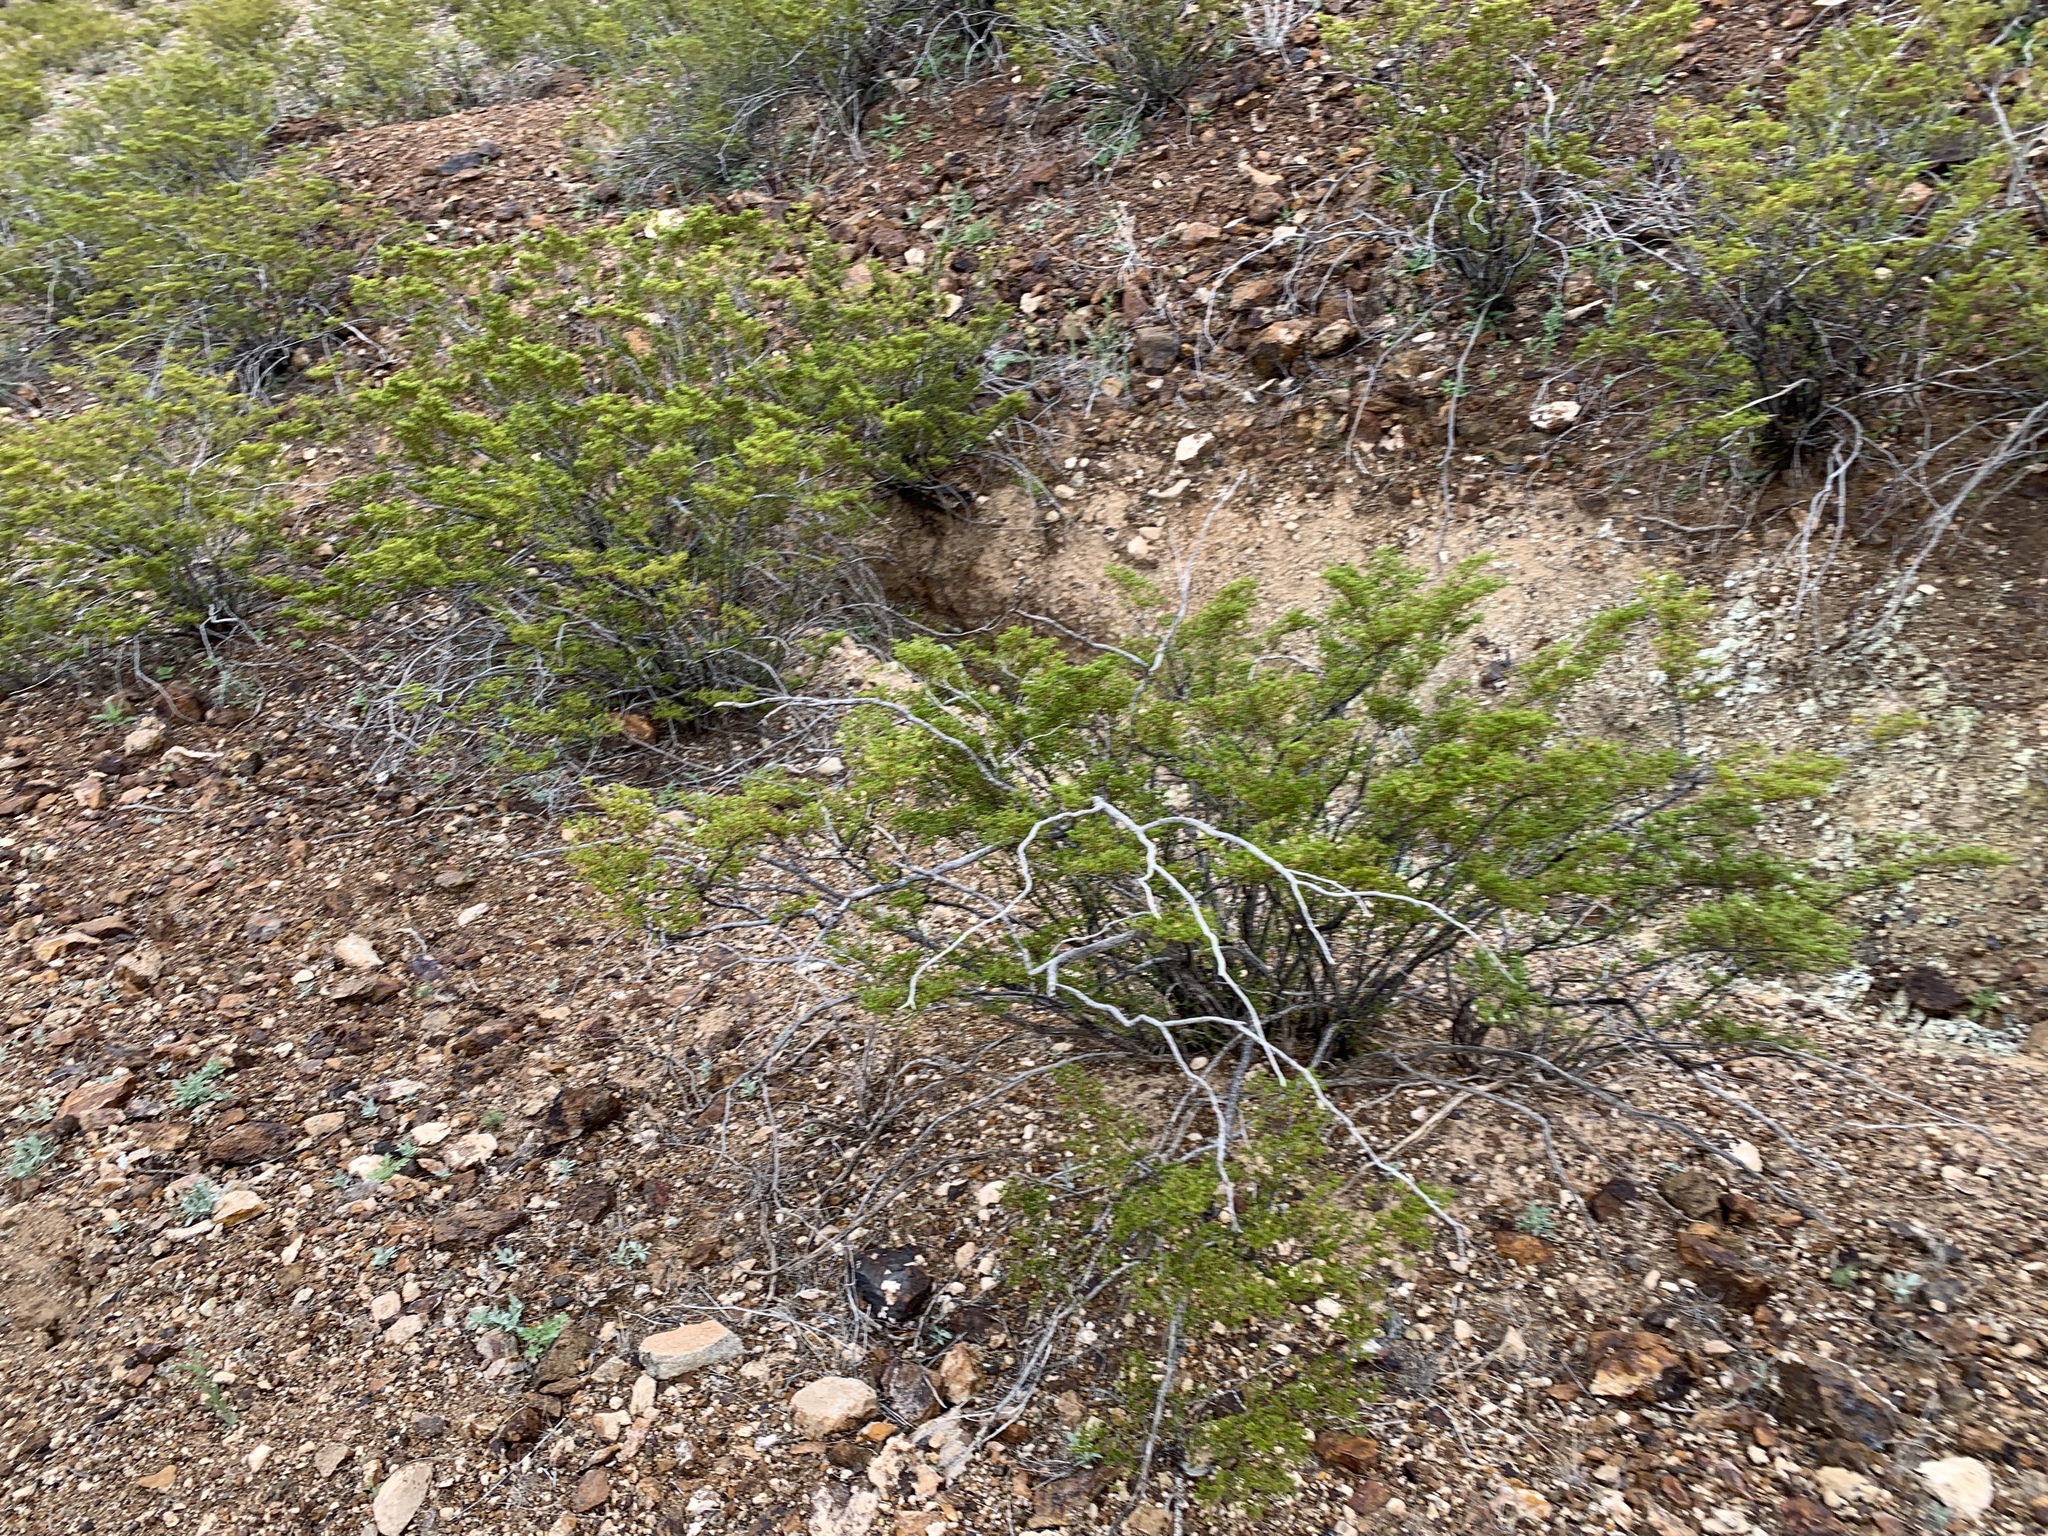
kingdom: Plantae
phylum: Tracheophyta
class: Magnoliopsida
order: Zygophyllales
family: Zygophyllaceae
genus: Larrea
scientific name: Larrea tridentata
